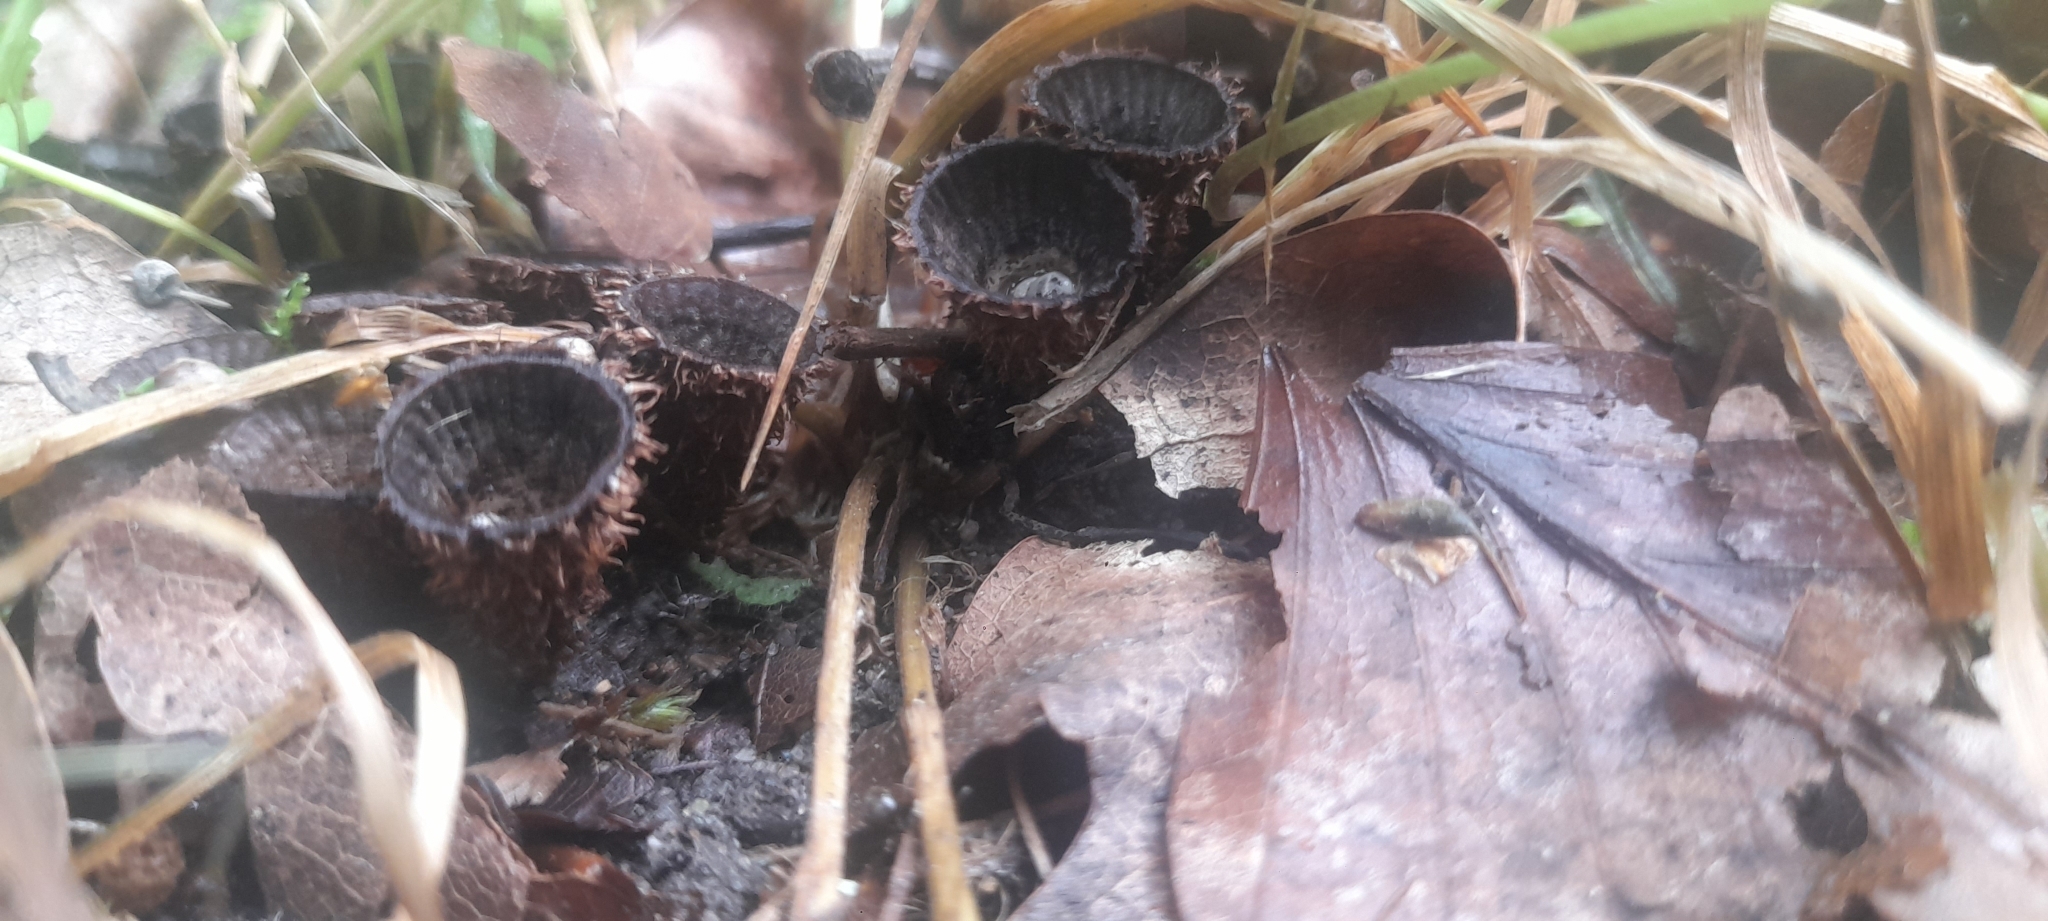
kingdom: Fungi
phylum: Basidiomycota
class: Agaricomycetes
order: Agaricales
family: Agaricaceae
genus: Cyathus
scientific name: Cyathus striatus
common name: Fluted bird's nest
